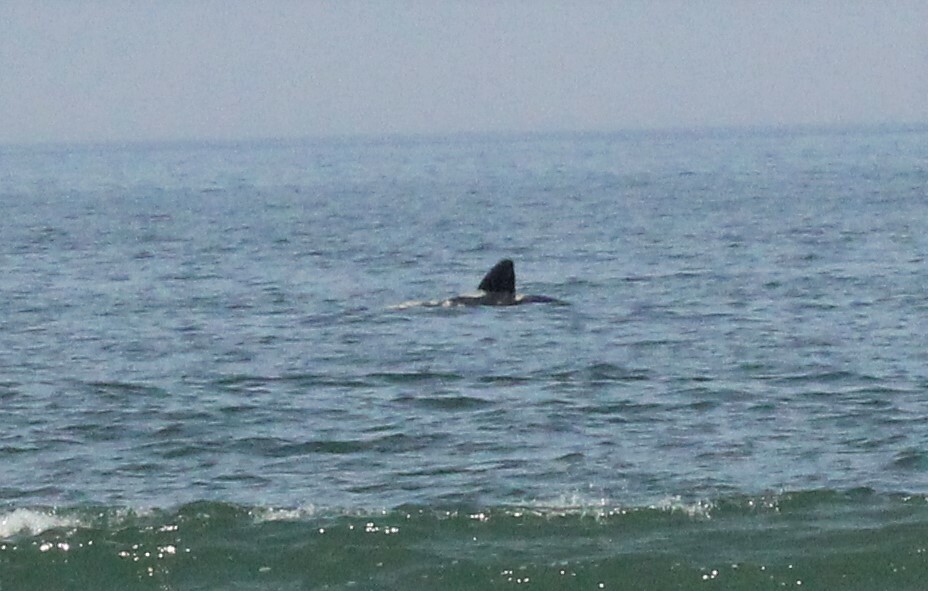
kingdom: Animalia
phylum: Chordata
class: Mammalia
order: Cetacea
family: Balaenidae
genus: Eubalaena
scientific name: Eubalaena australis
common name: Southern right whale
